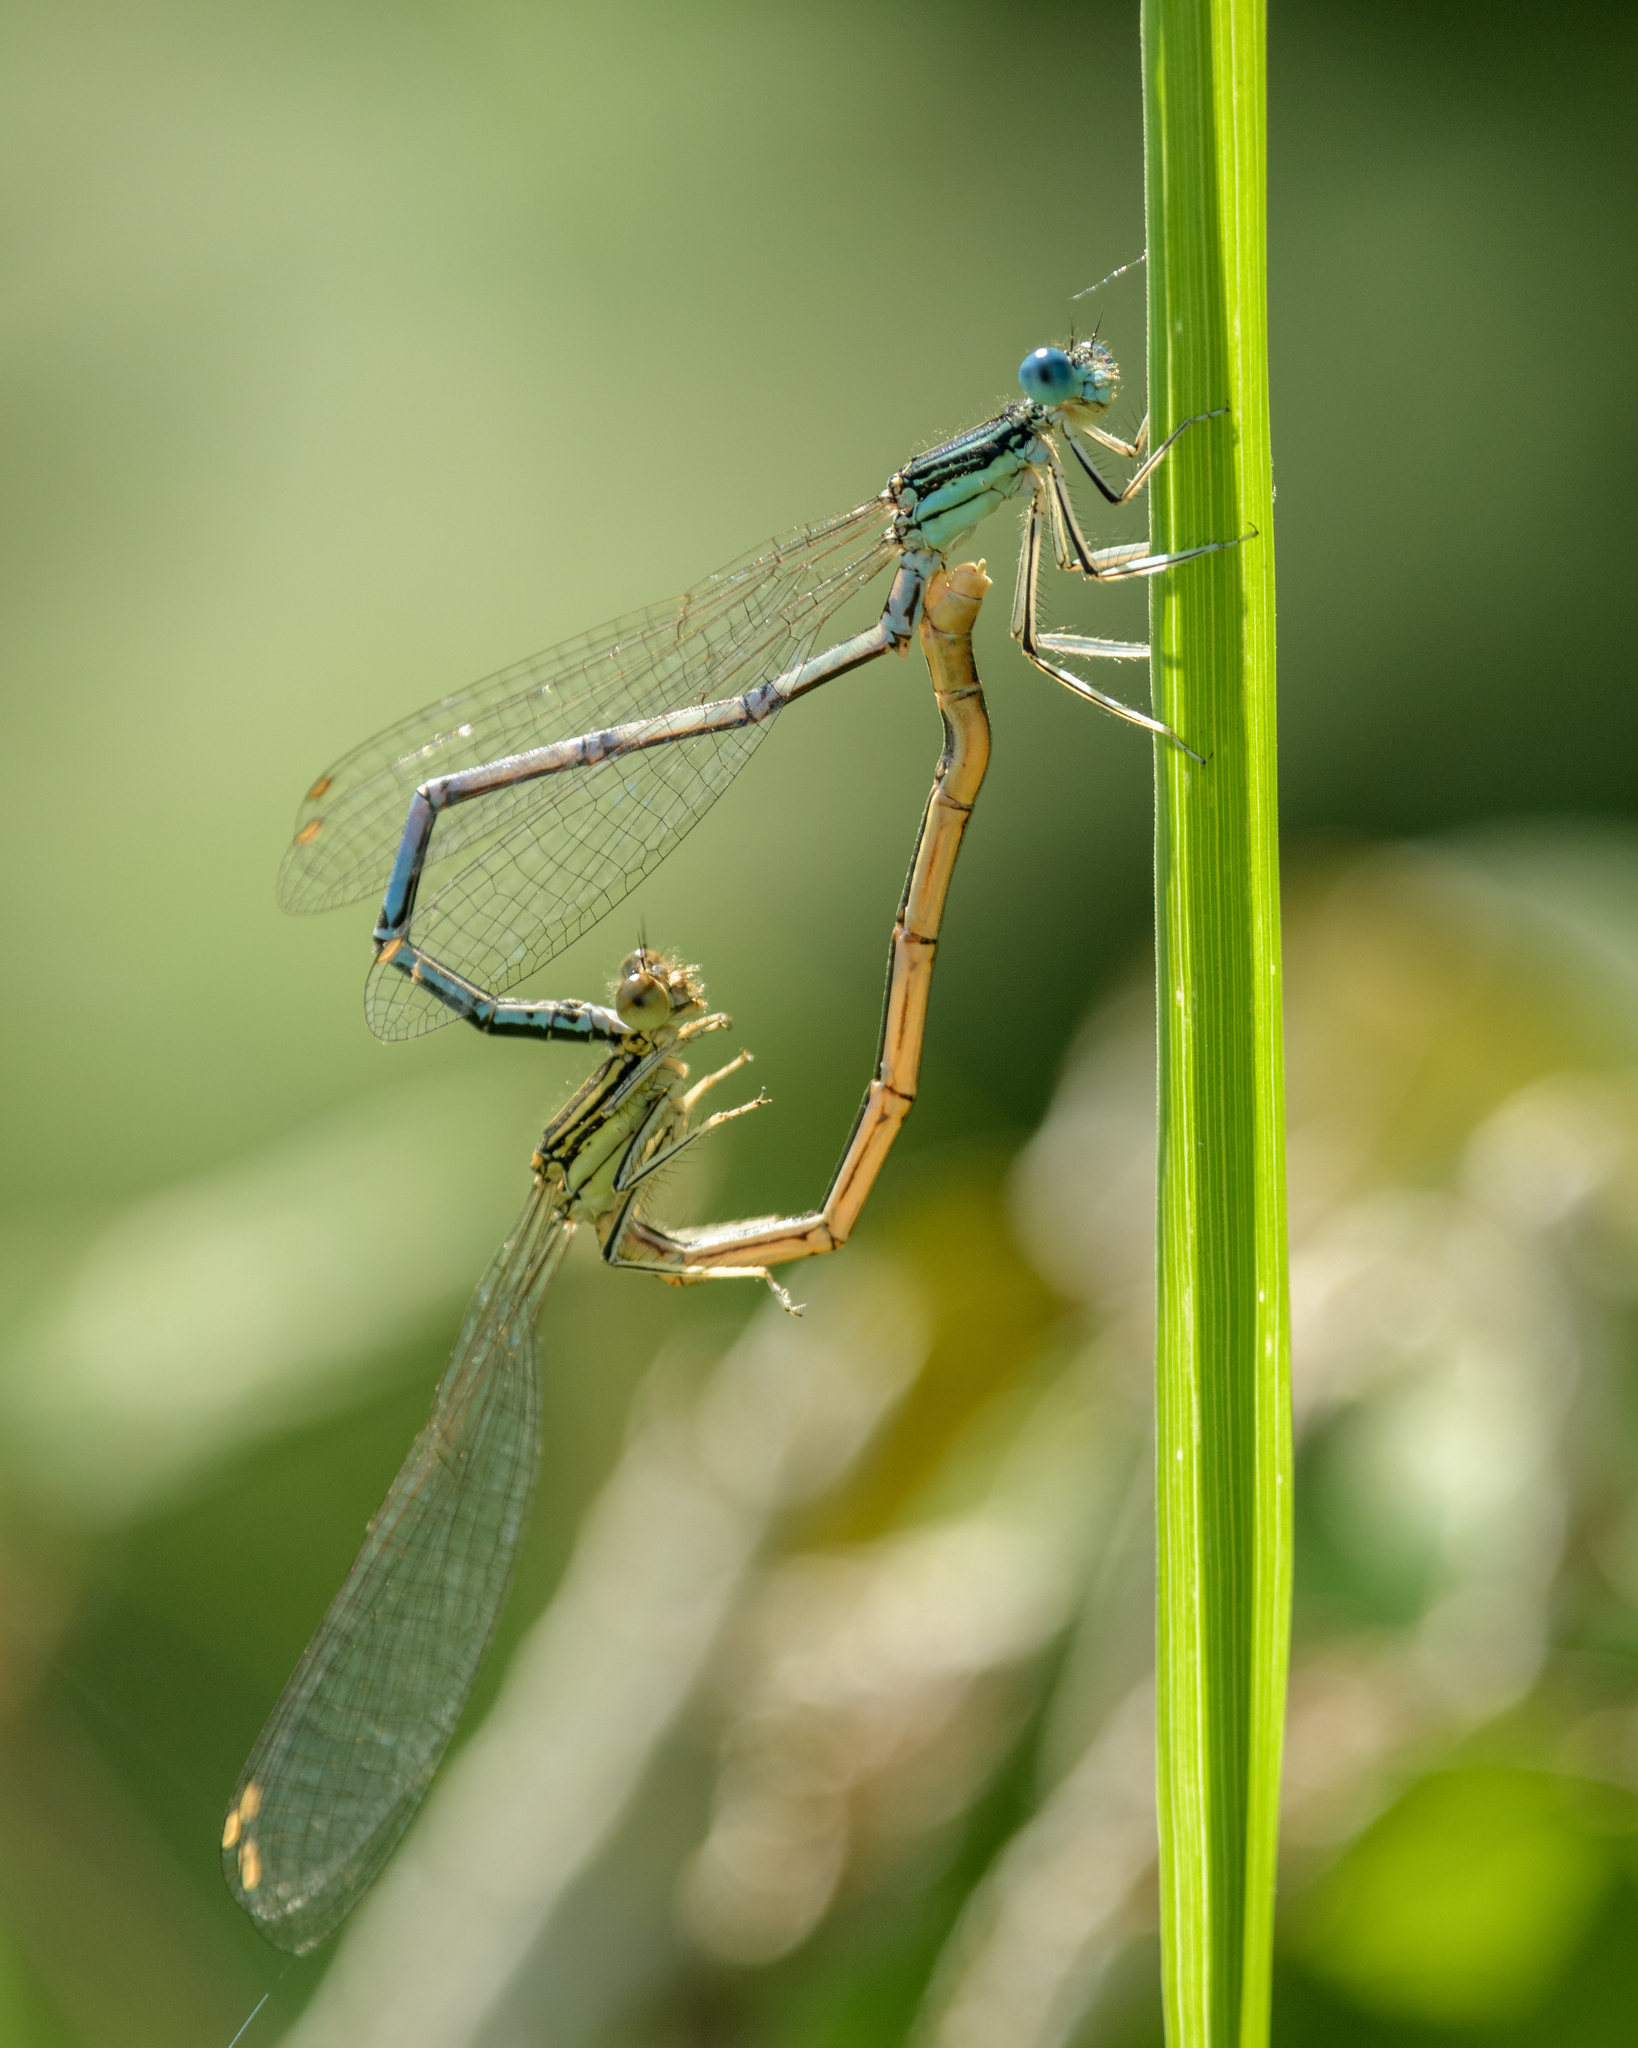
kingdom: Animalia
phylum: Arthropoda
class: Insecta
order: Odonata
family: Platycnemididae
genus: Platycnemis
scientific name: Platycnemis pennipes
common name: White-legged damselfly
